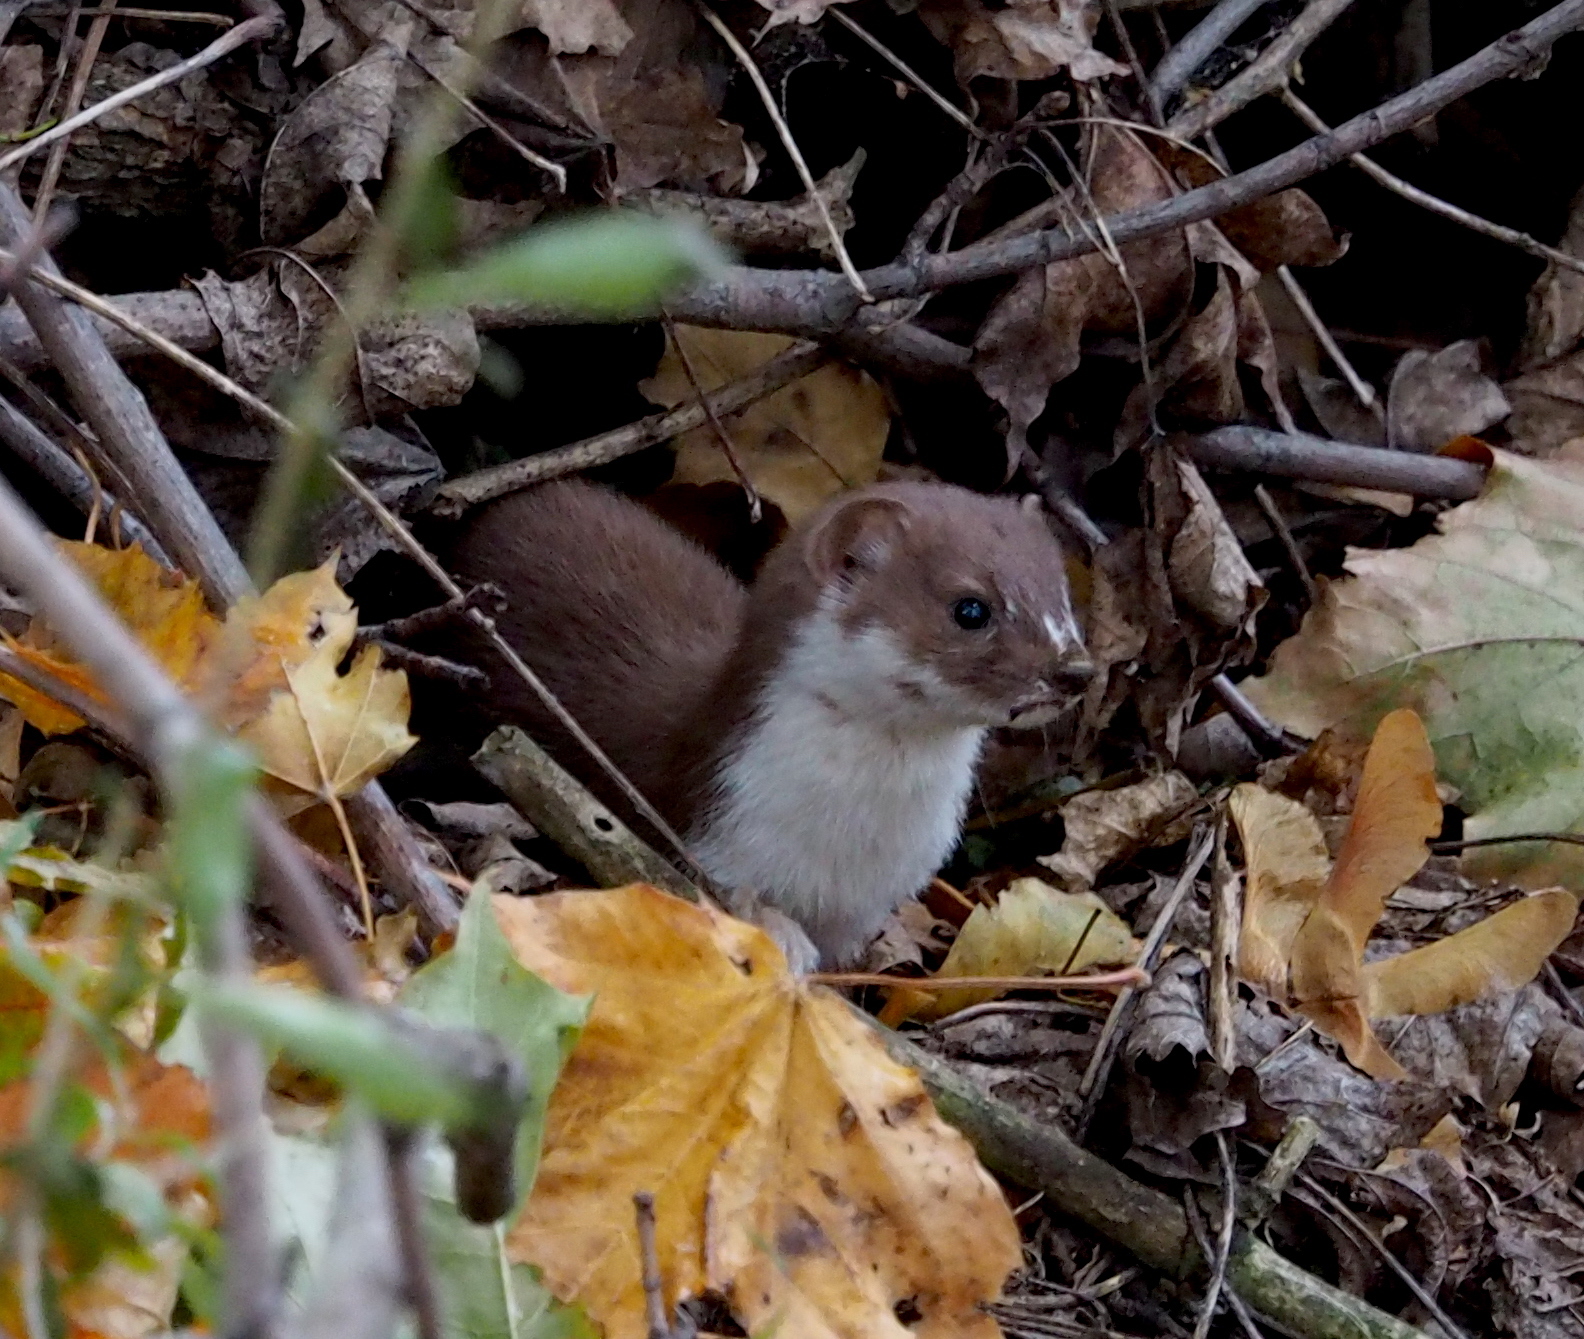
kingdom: Animalia
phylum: Chordata
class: Mammalia
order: Carnivora
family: Mustelidae
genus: Mustela
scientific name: Mustela erminea
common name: Stoat
